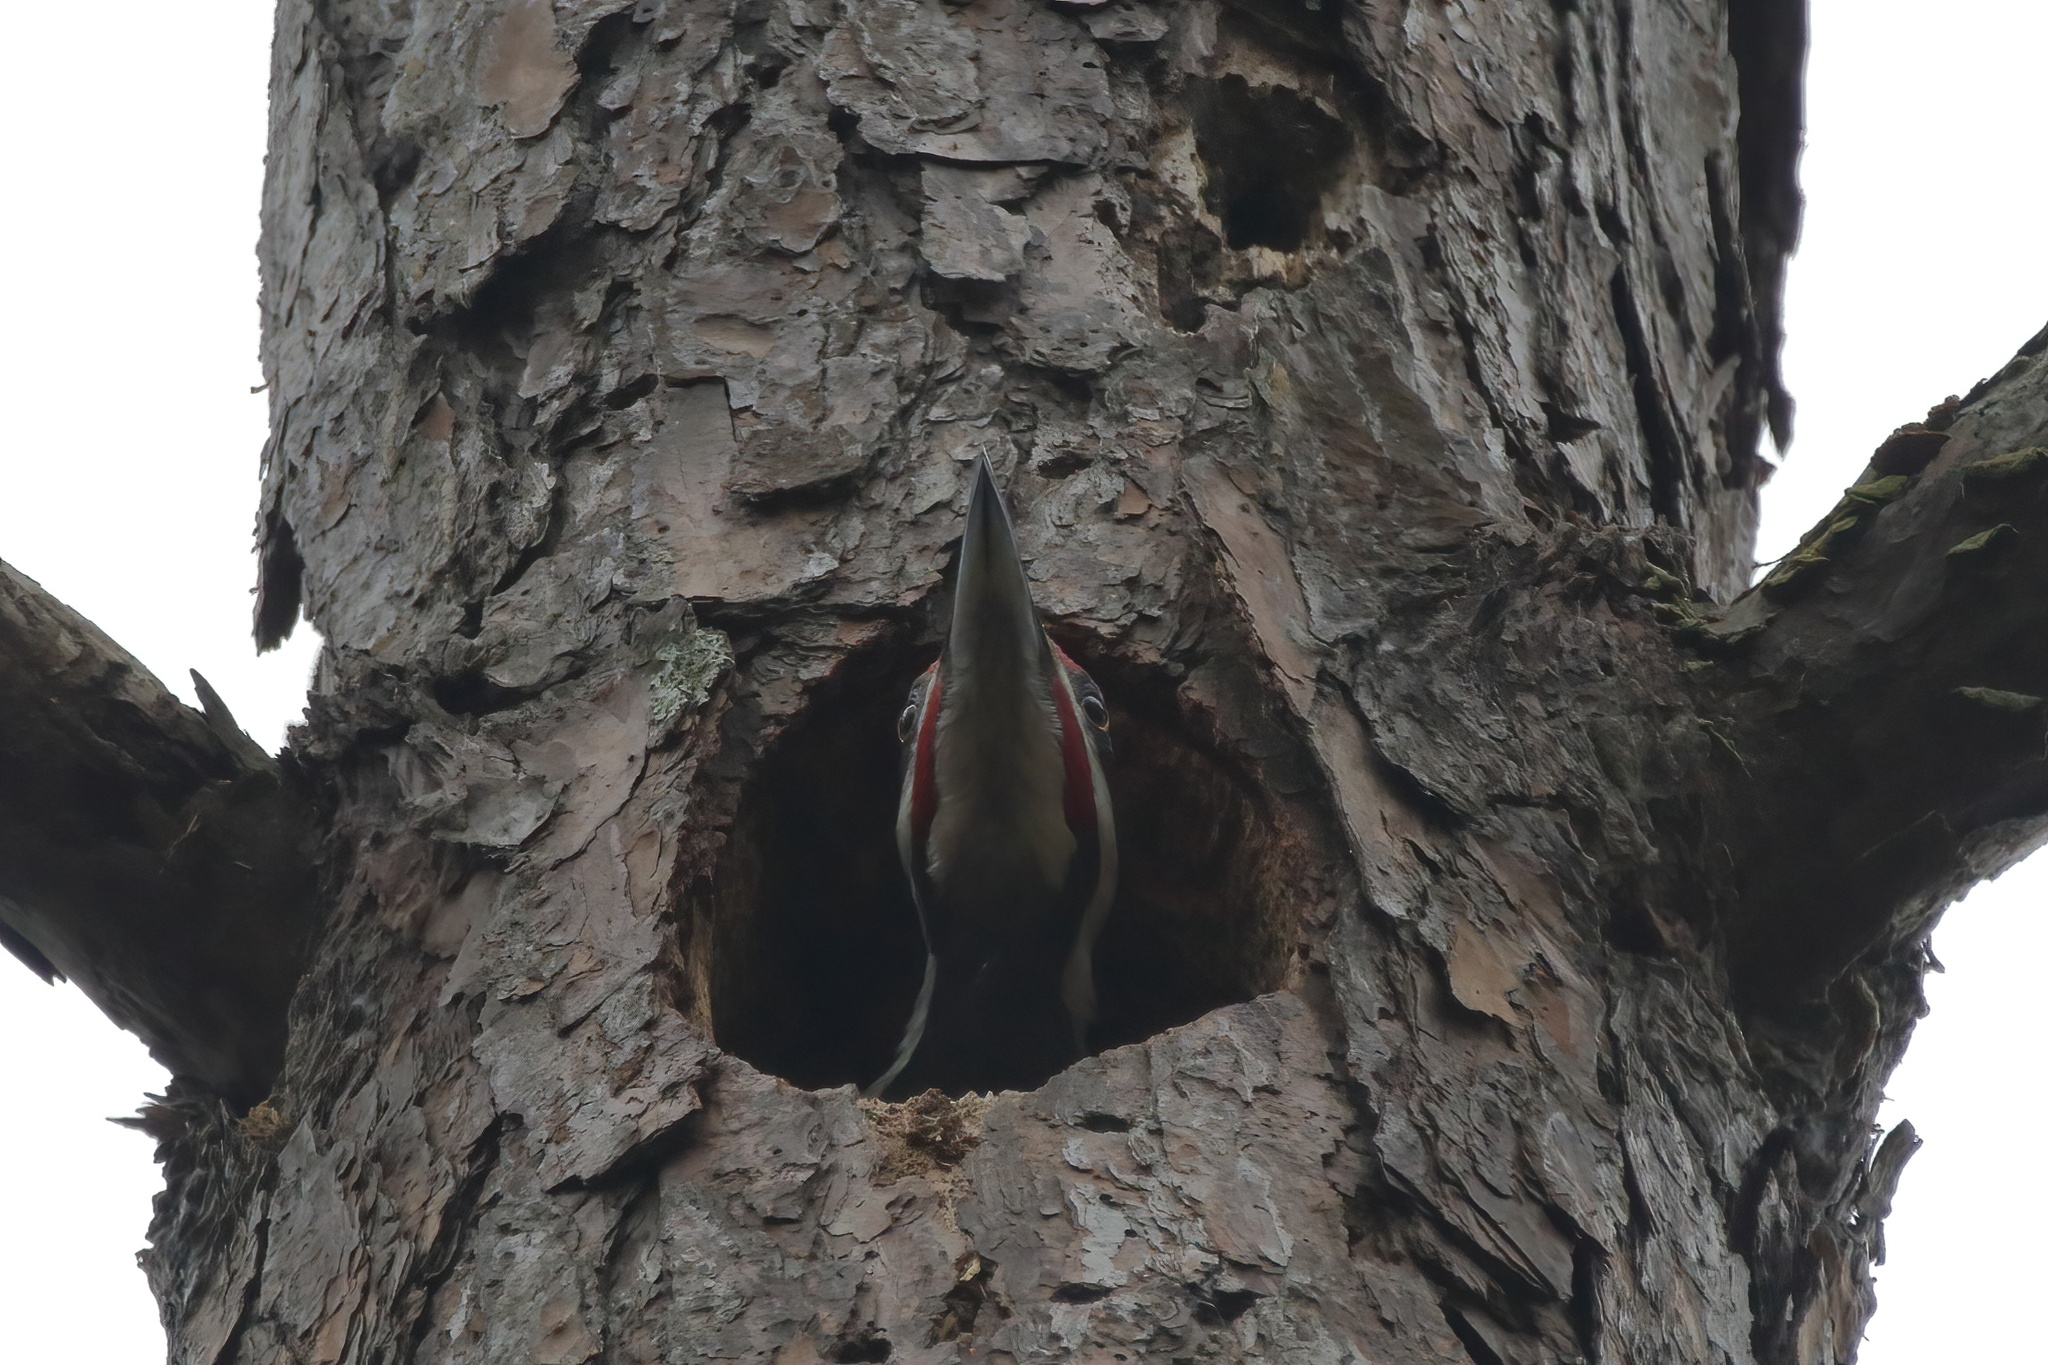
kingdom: Animalia
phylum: Chordata
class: Aves
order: Piciformes
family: Picidae
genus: Dryocopus
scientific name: Dryocopus pileatus
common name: Pileated woodpecker
